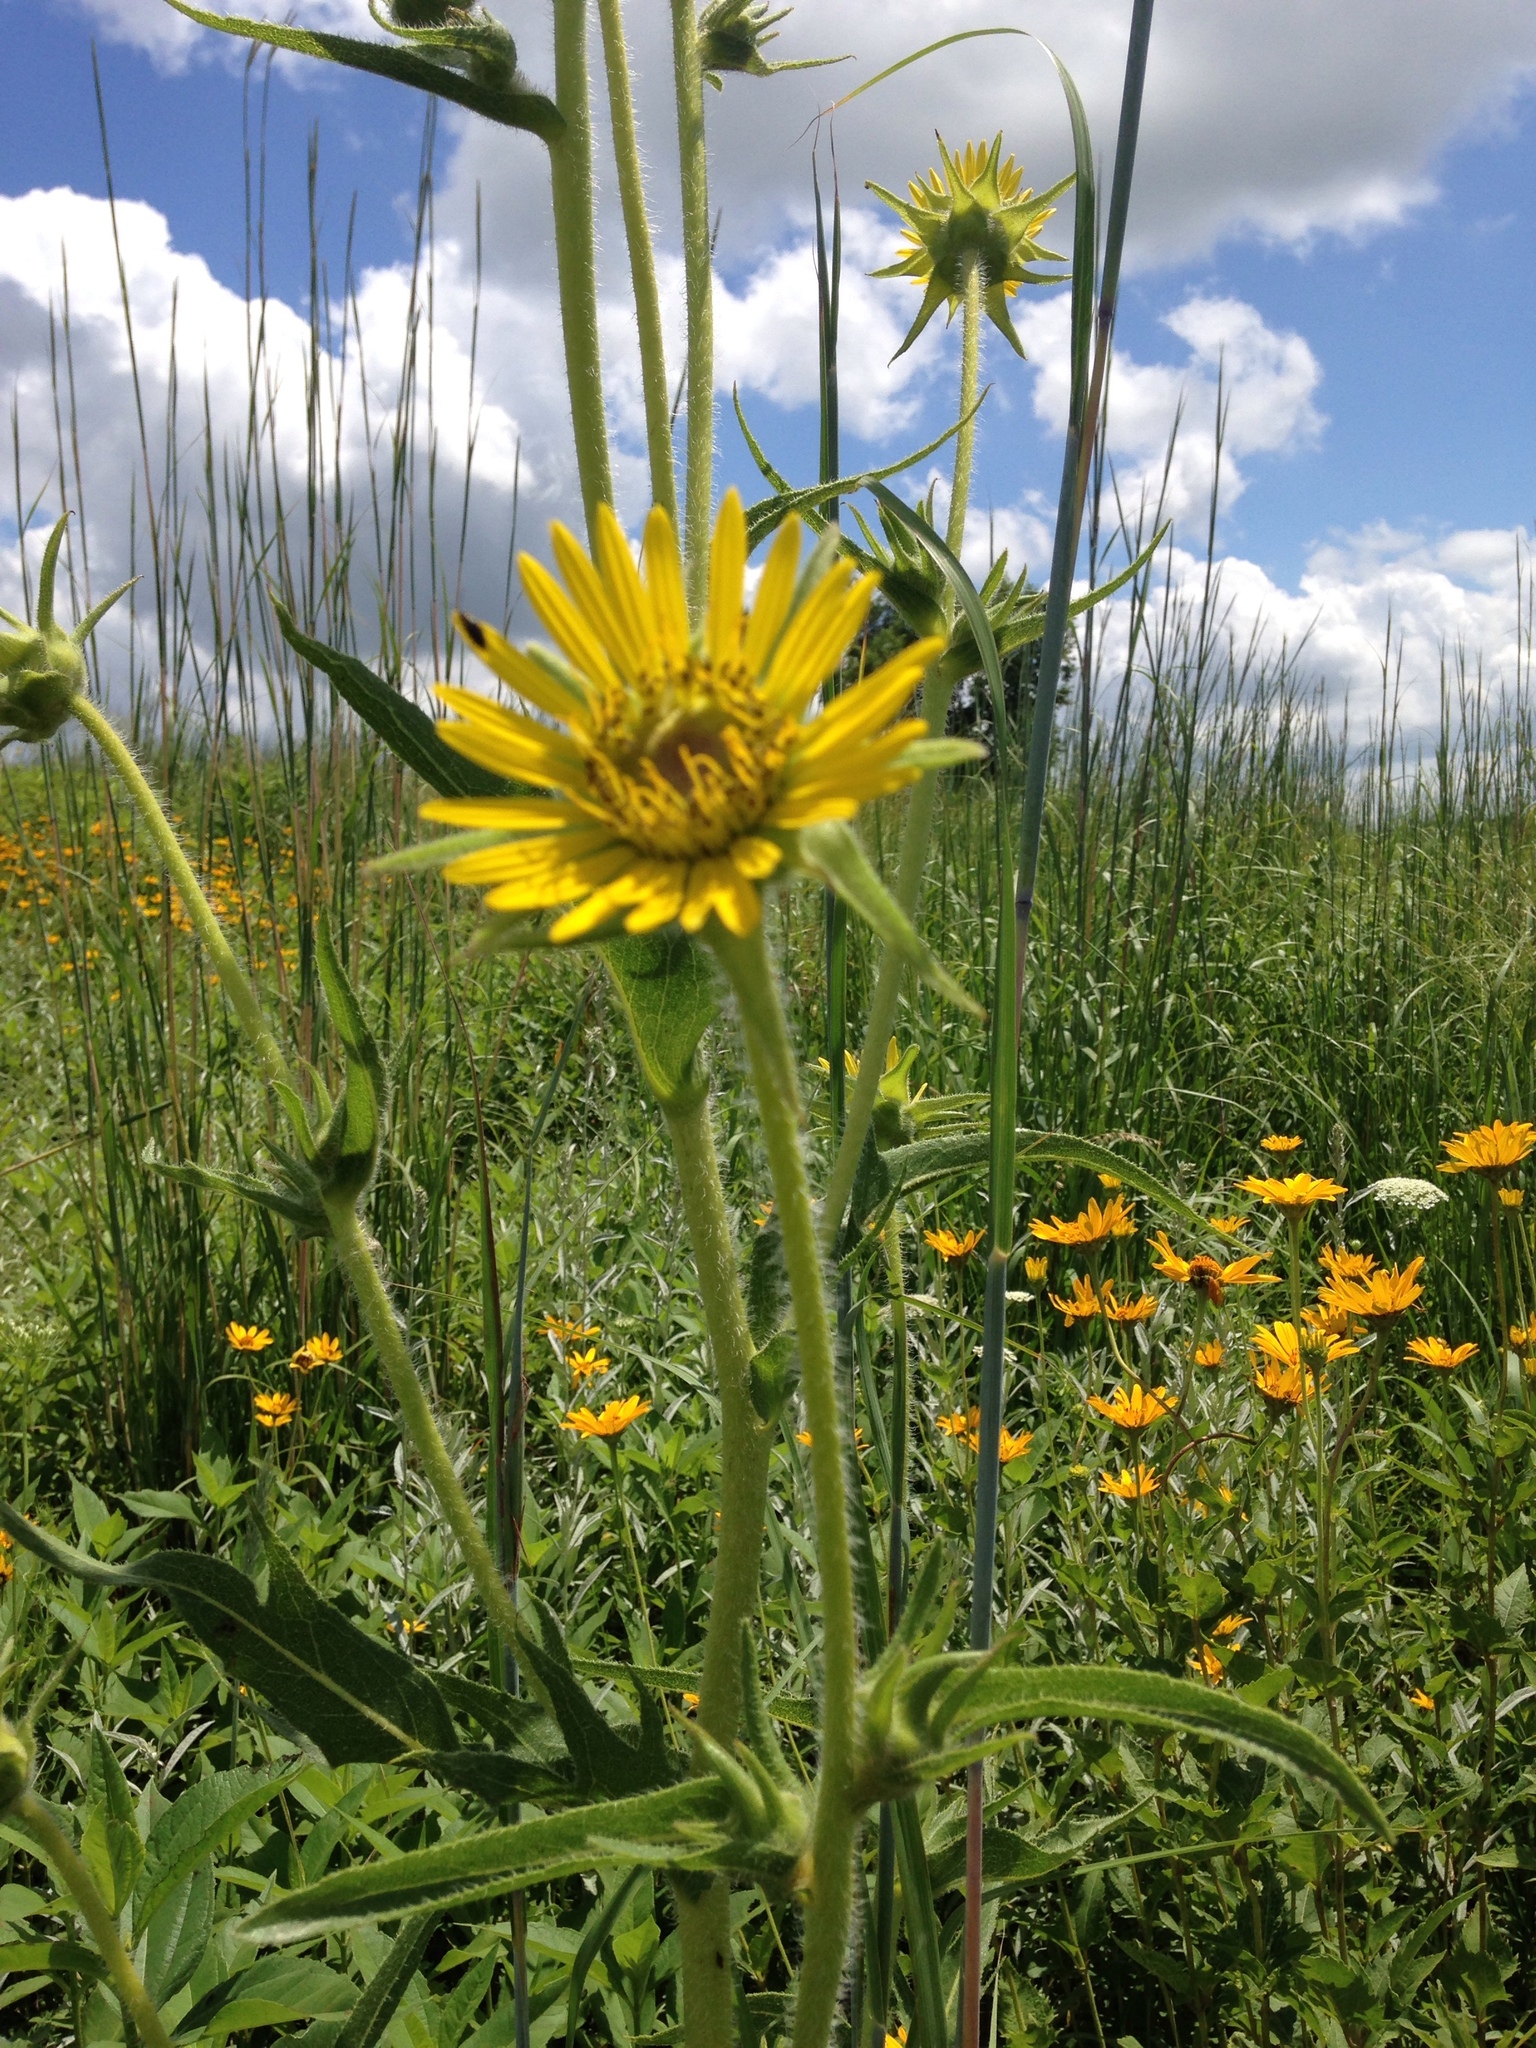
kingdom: Plantae
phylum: Tracheophyta
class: Magnoliopsida
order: Asterales
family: Asteraceae
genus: Silphium
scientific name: Silphium laciniatum
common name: Polarplant
